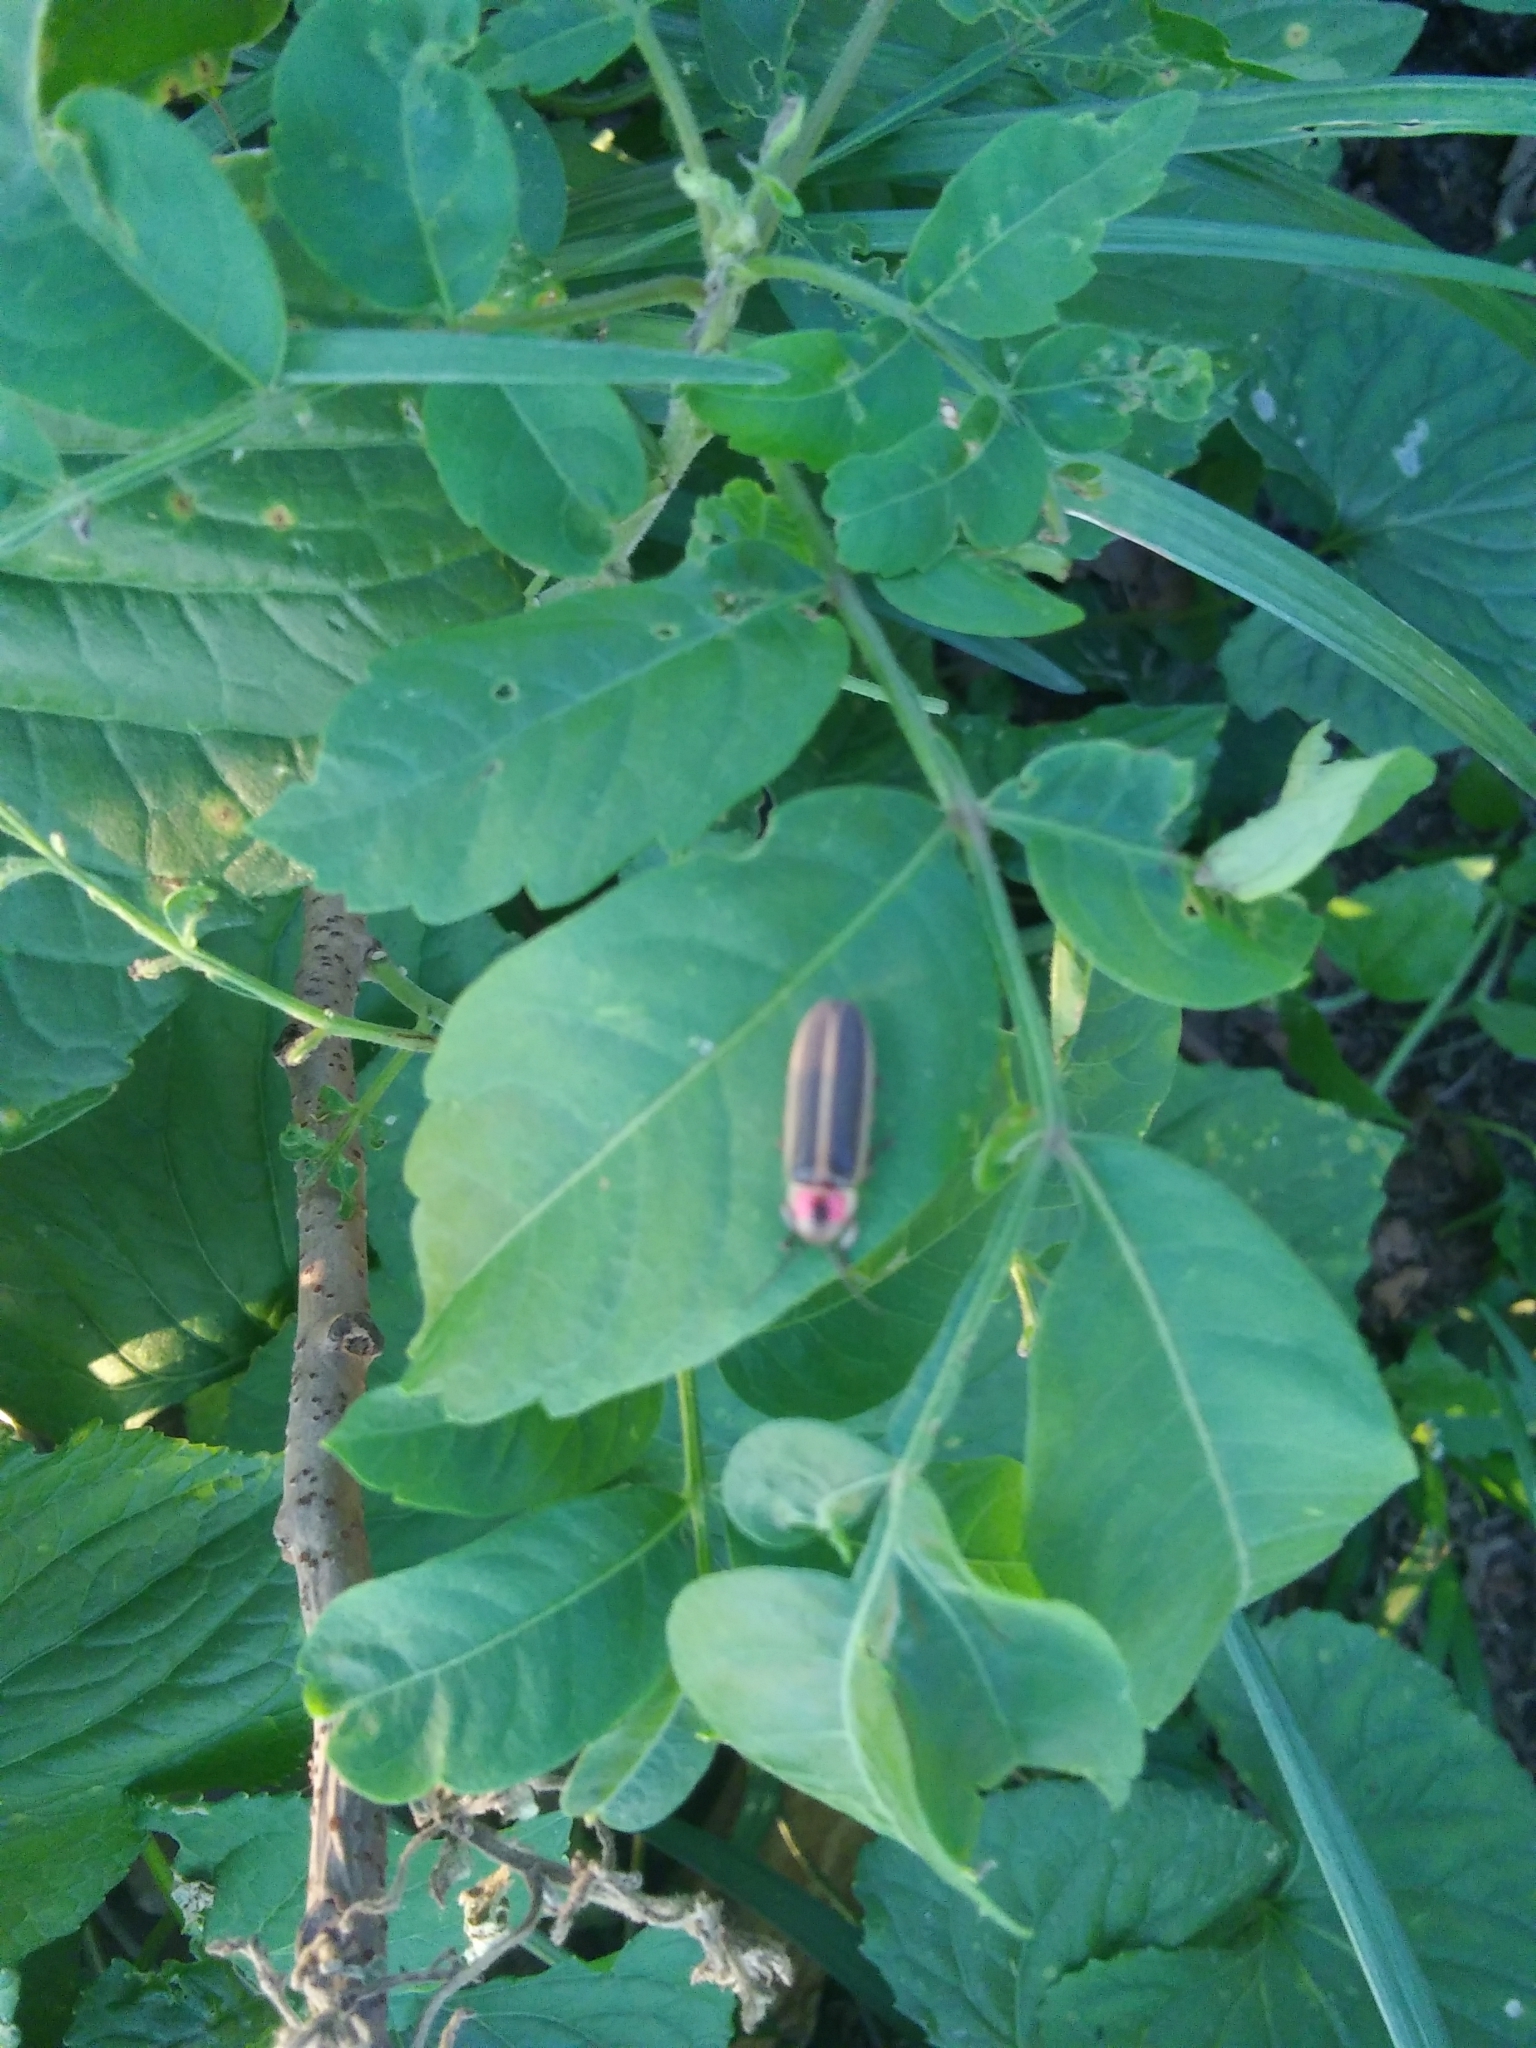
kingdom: Animalia
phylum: Arthropoda
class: Insecta
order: Coleoptera
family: Lampyridae
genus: Photinus
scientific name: Photinus pyralis
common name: Big dipper firefly
